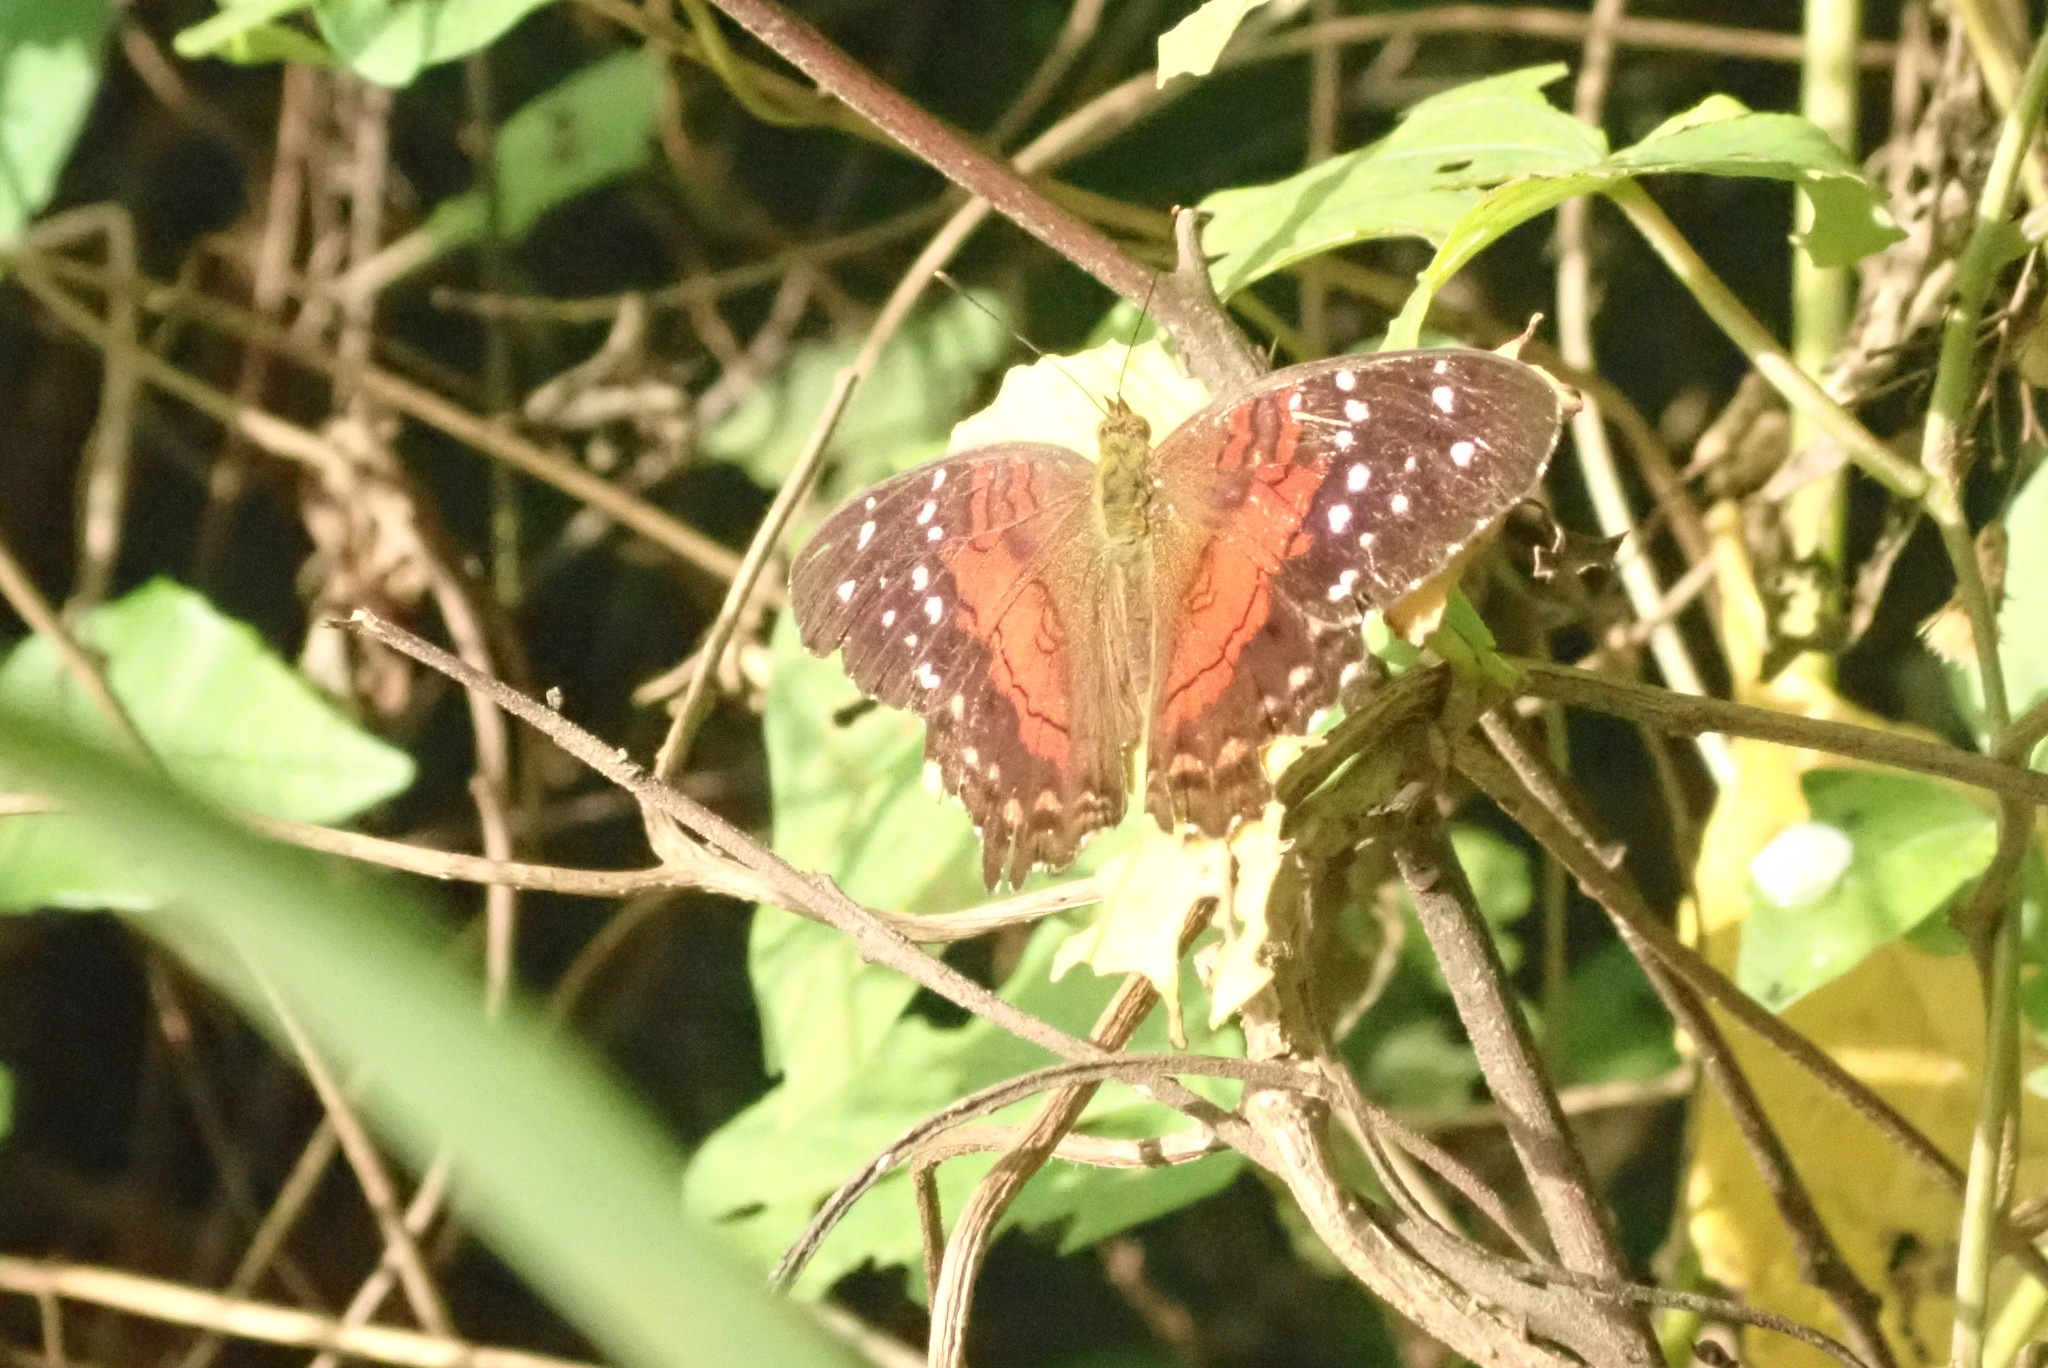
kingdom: Animalia
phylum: Arthropoda
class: Insecta
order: Lepidoptera
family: Nymphalidae
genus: Anartia
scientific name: Anartia amathea
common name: Red peacock
